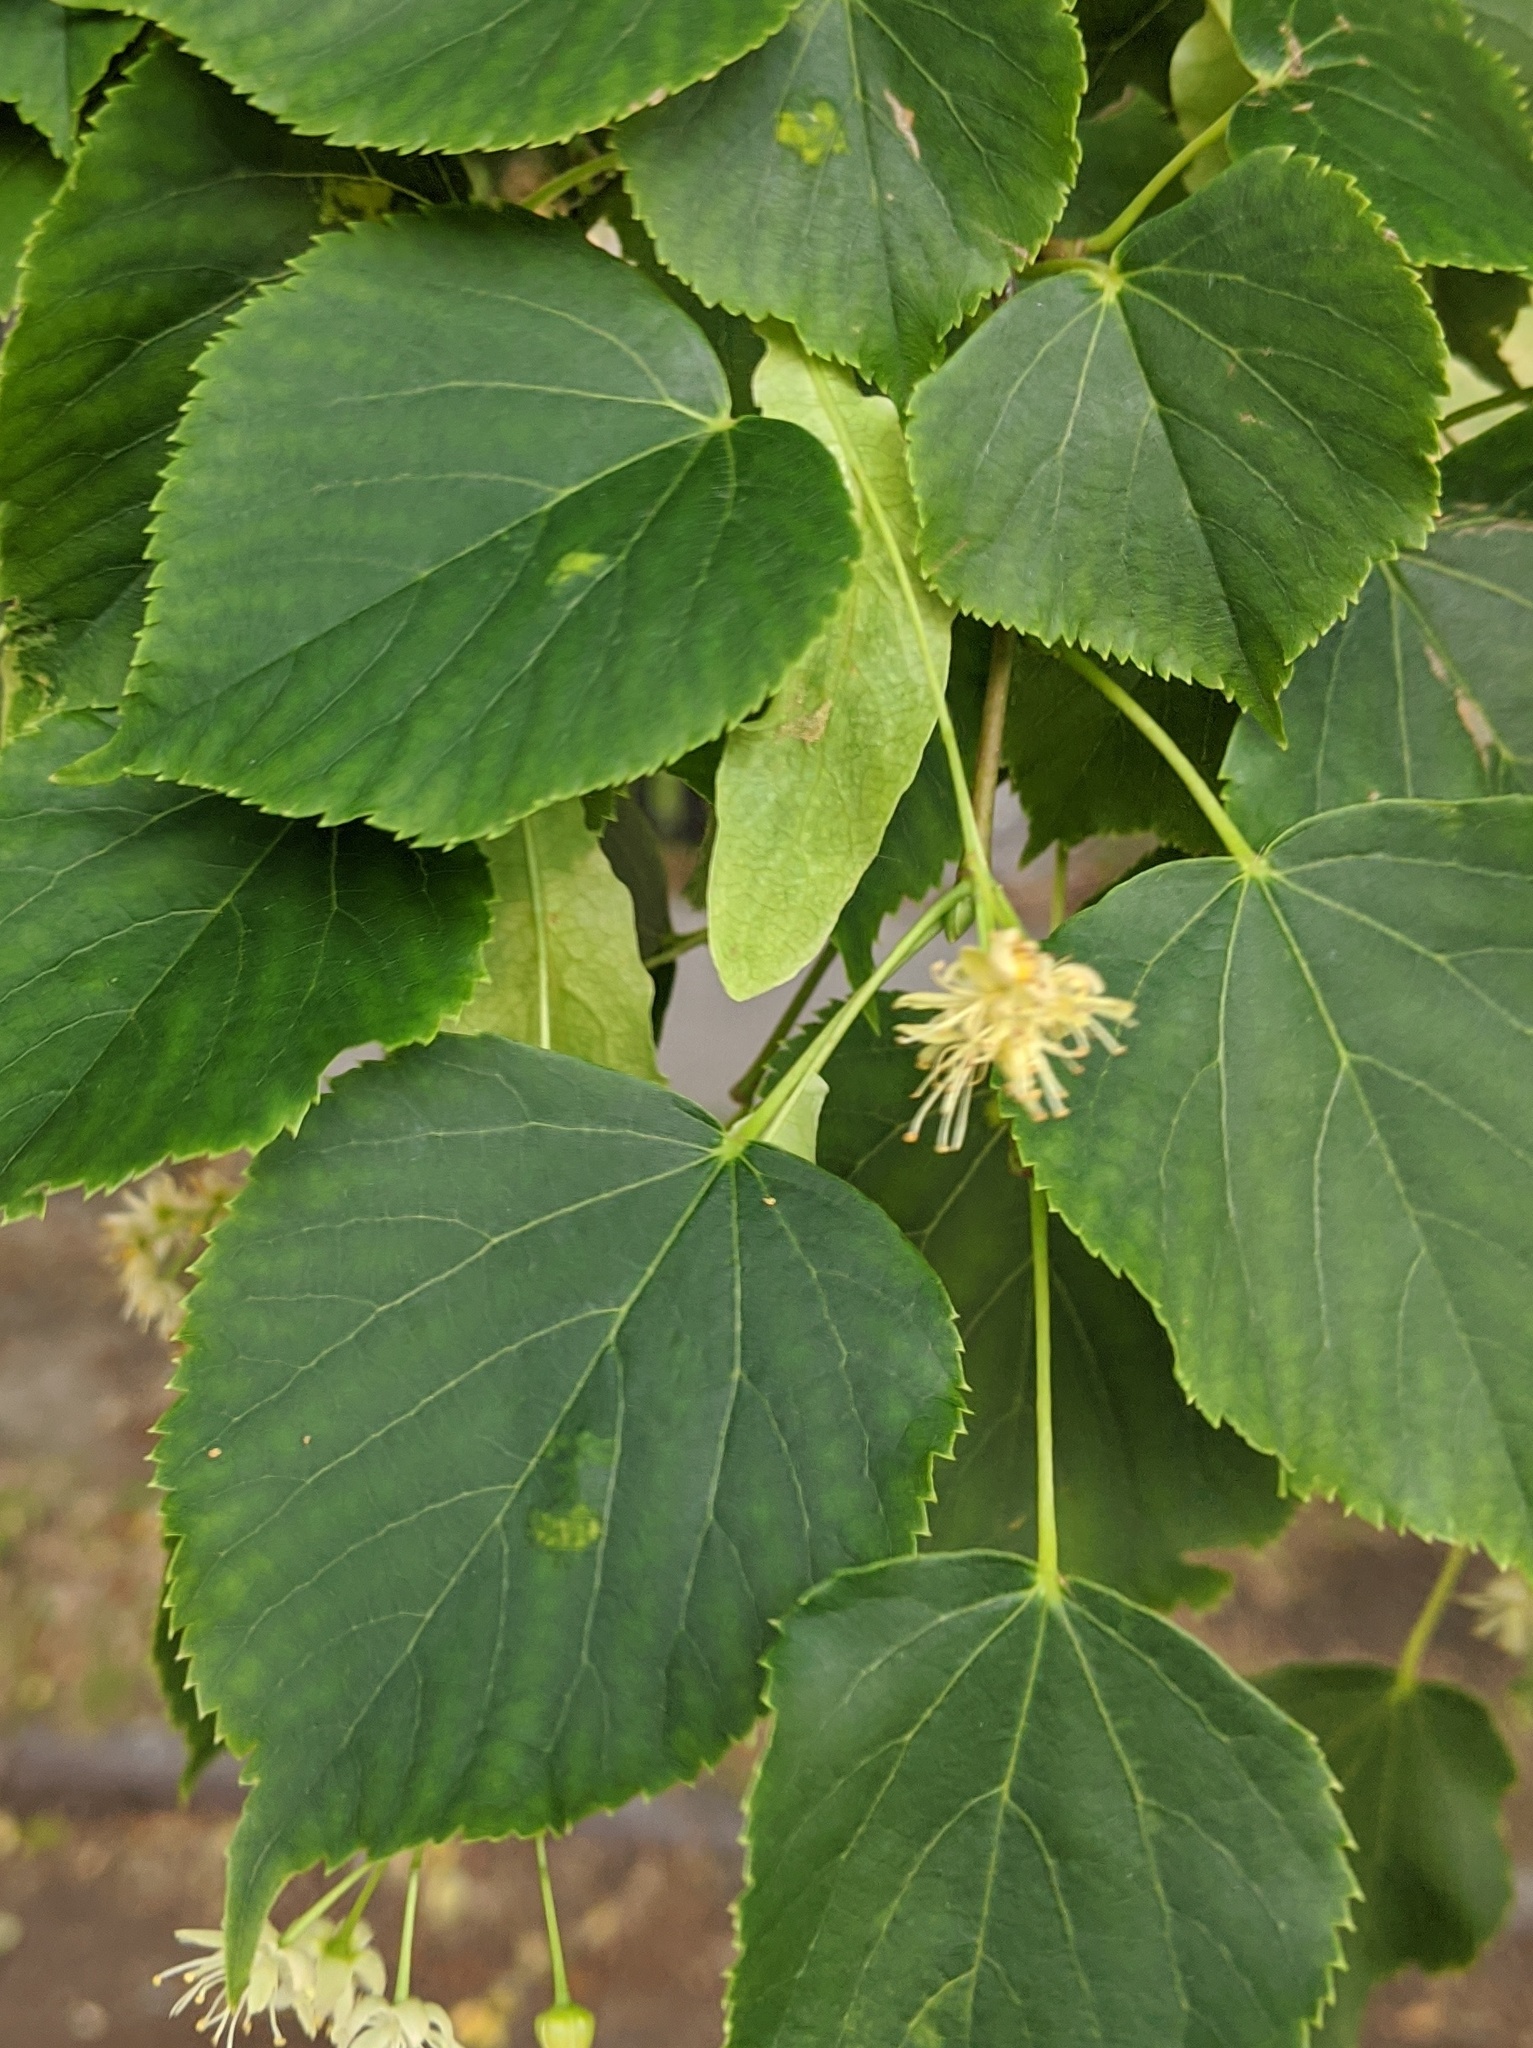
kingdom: Animalia
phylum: Arthropoda
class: Arachnida
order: Trombidiformes
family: Eriophyidae
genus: Eriophyes
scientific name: Eriophyes leiosoma
